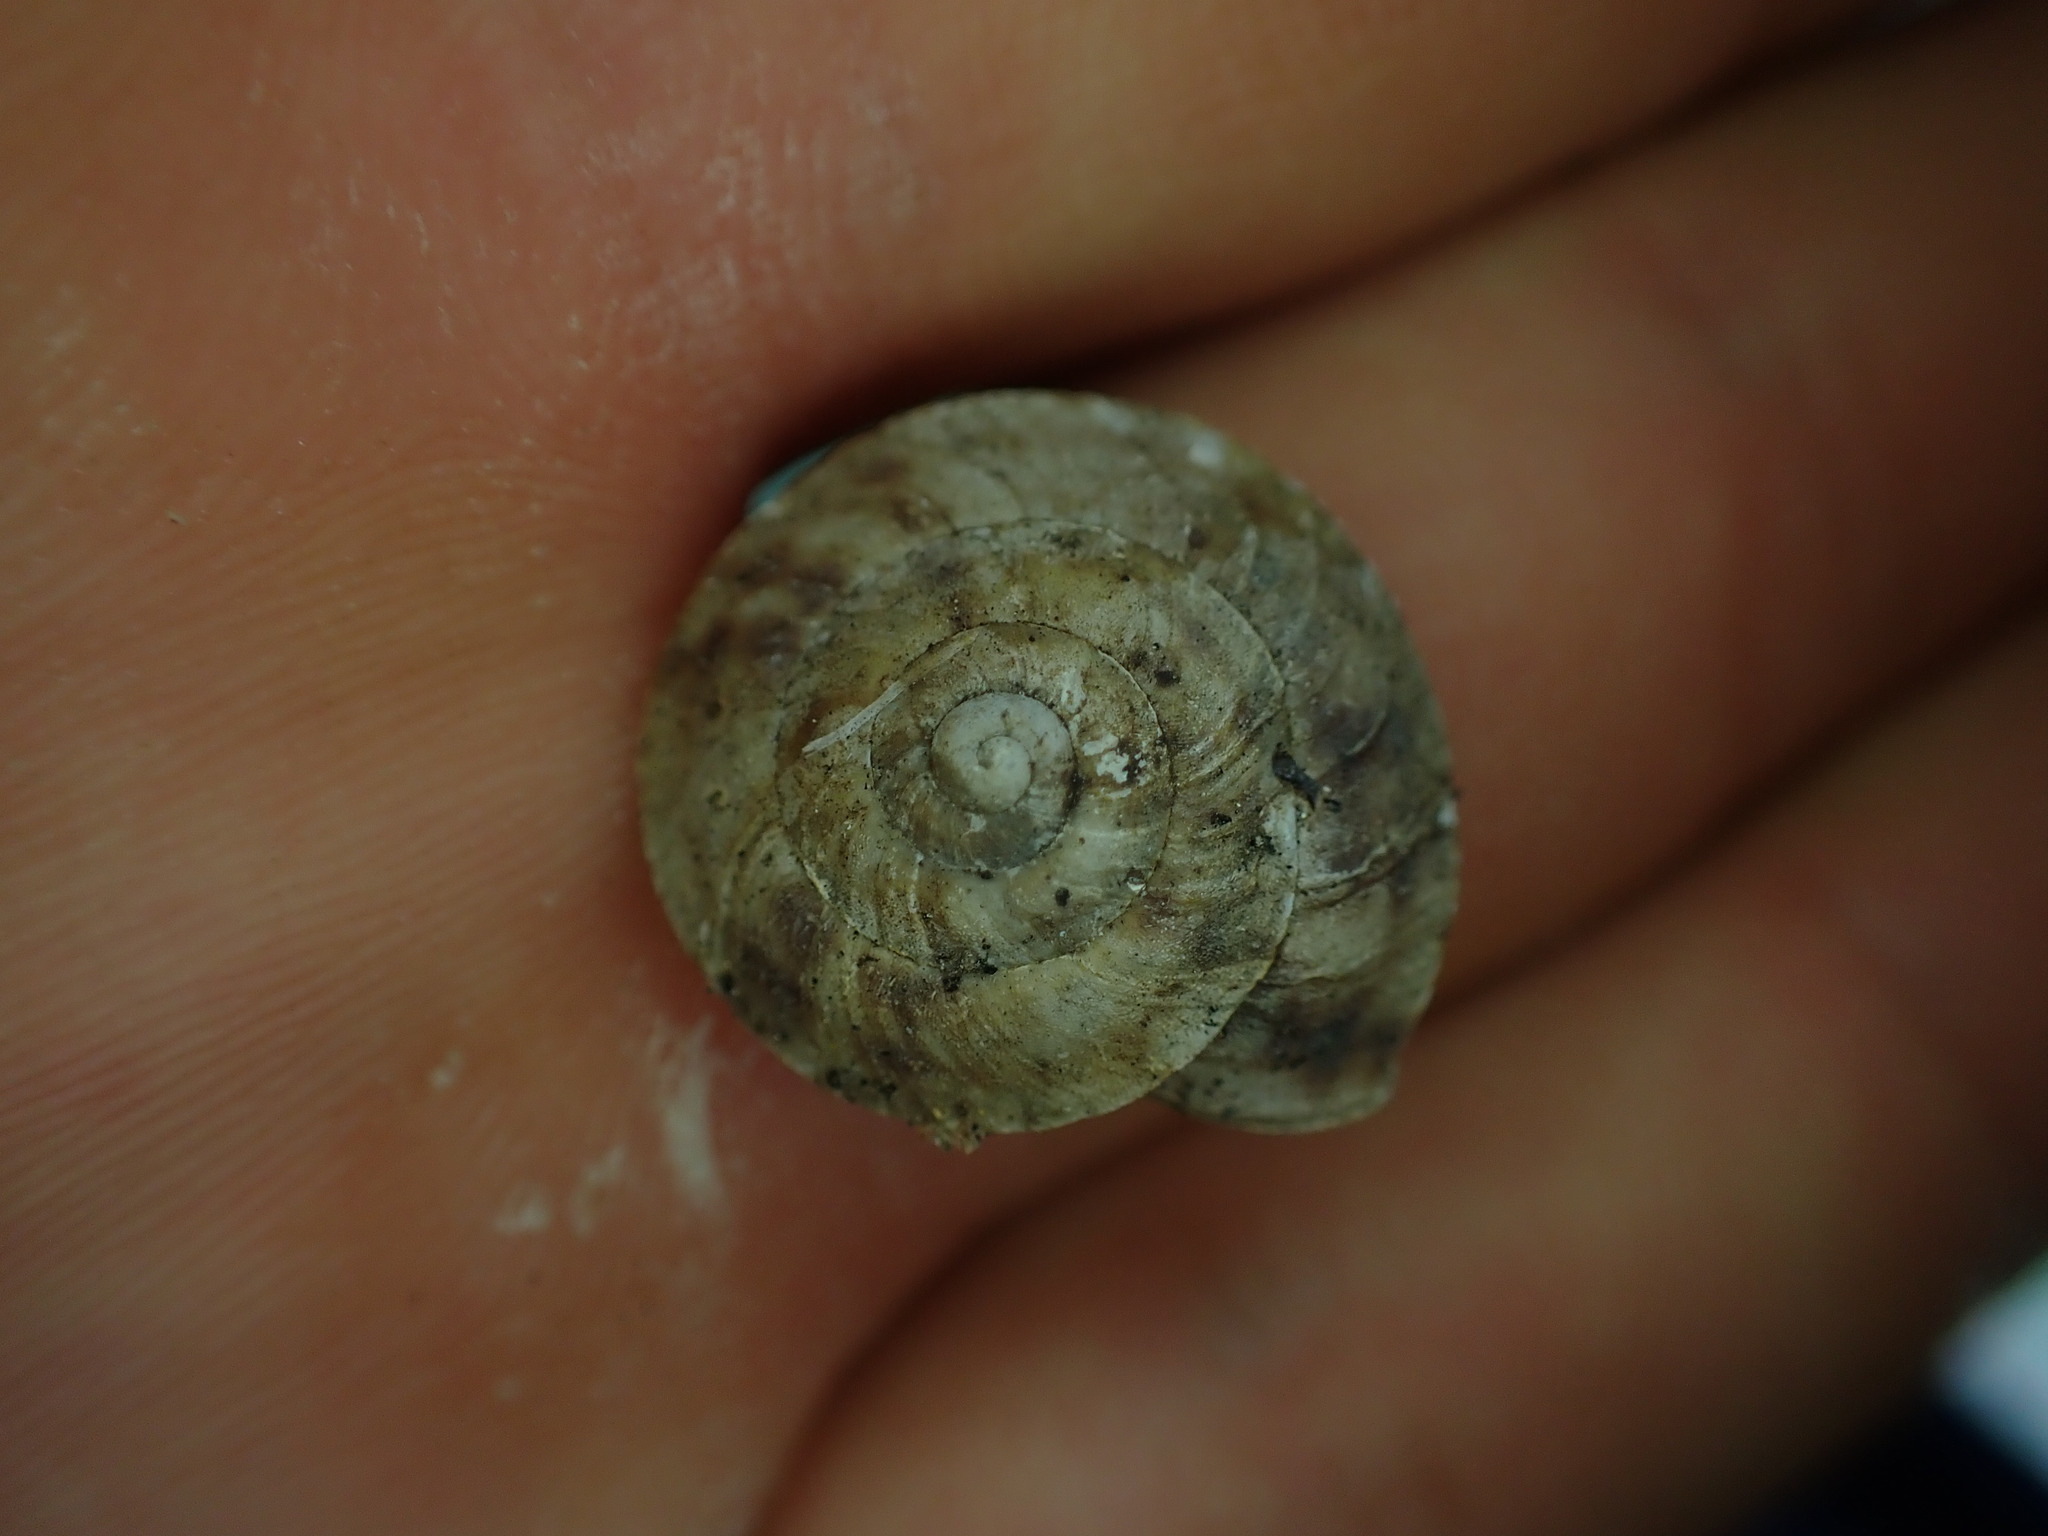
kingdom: Animalia
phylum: Mollusca
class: Gastropoda
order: Stylommatophora
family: Helicidae
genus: Helicigona
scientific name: Helicigona lapicida
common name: Lapidary snail
